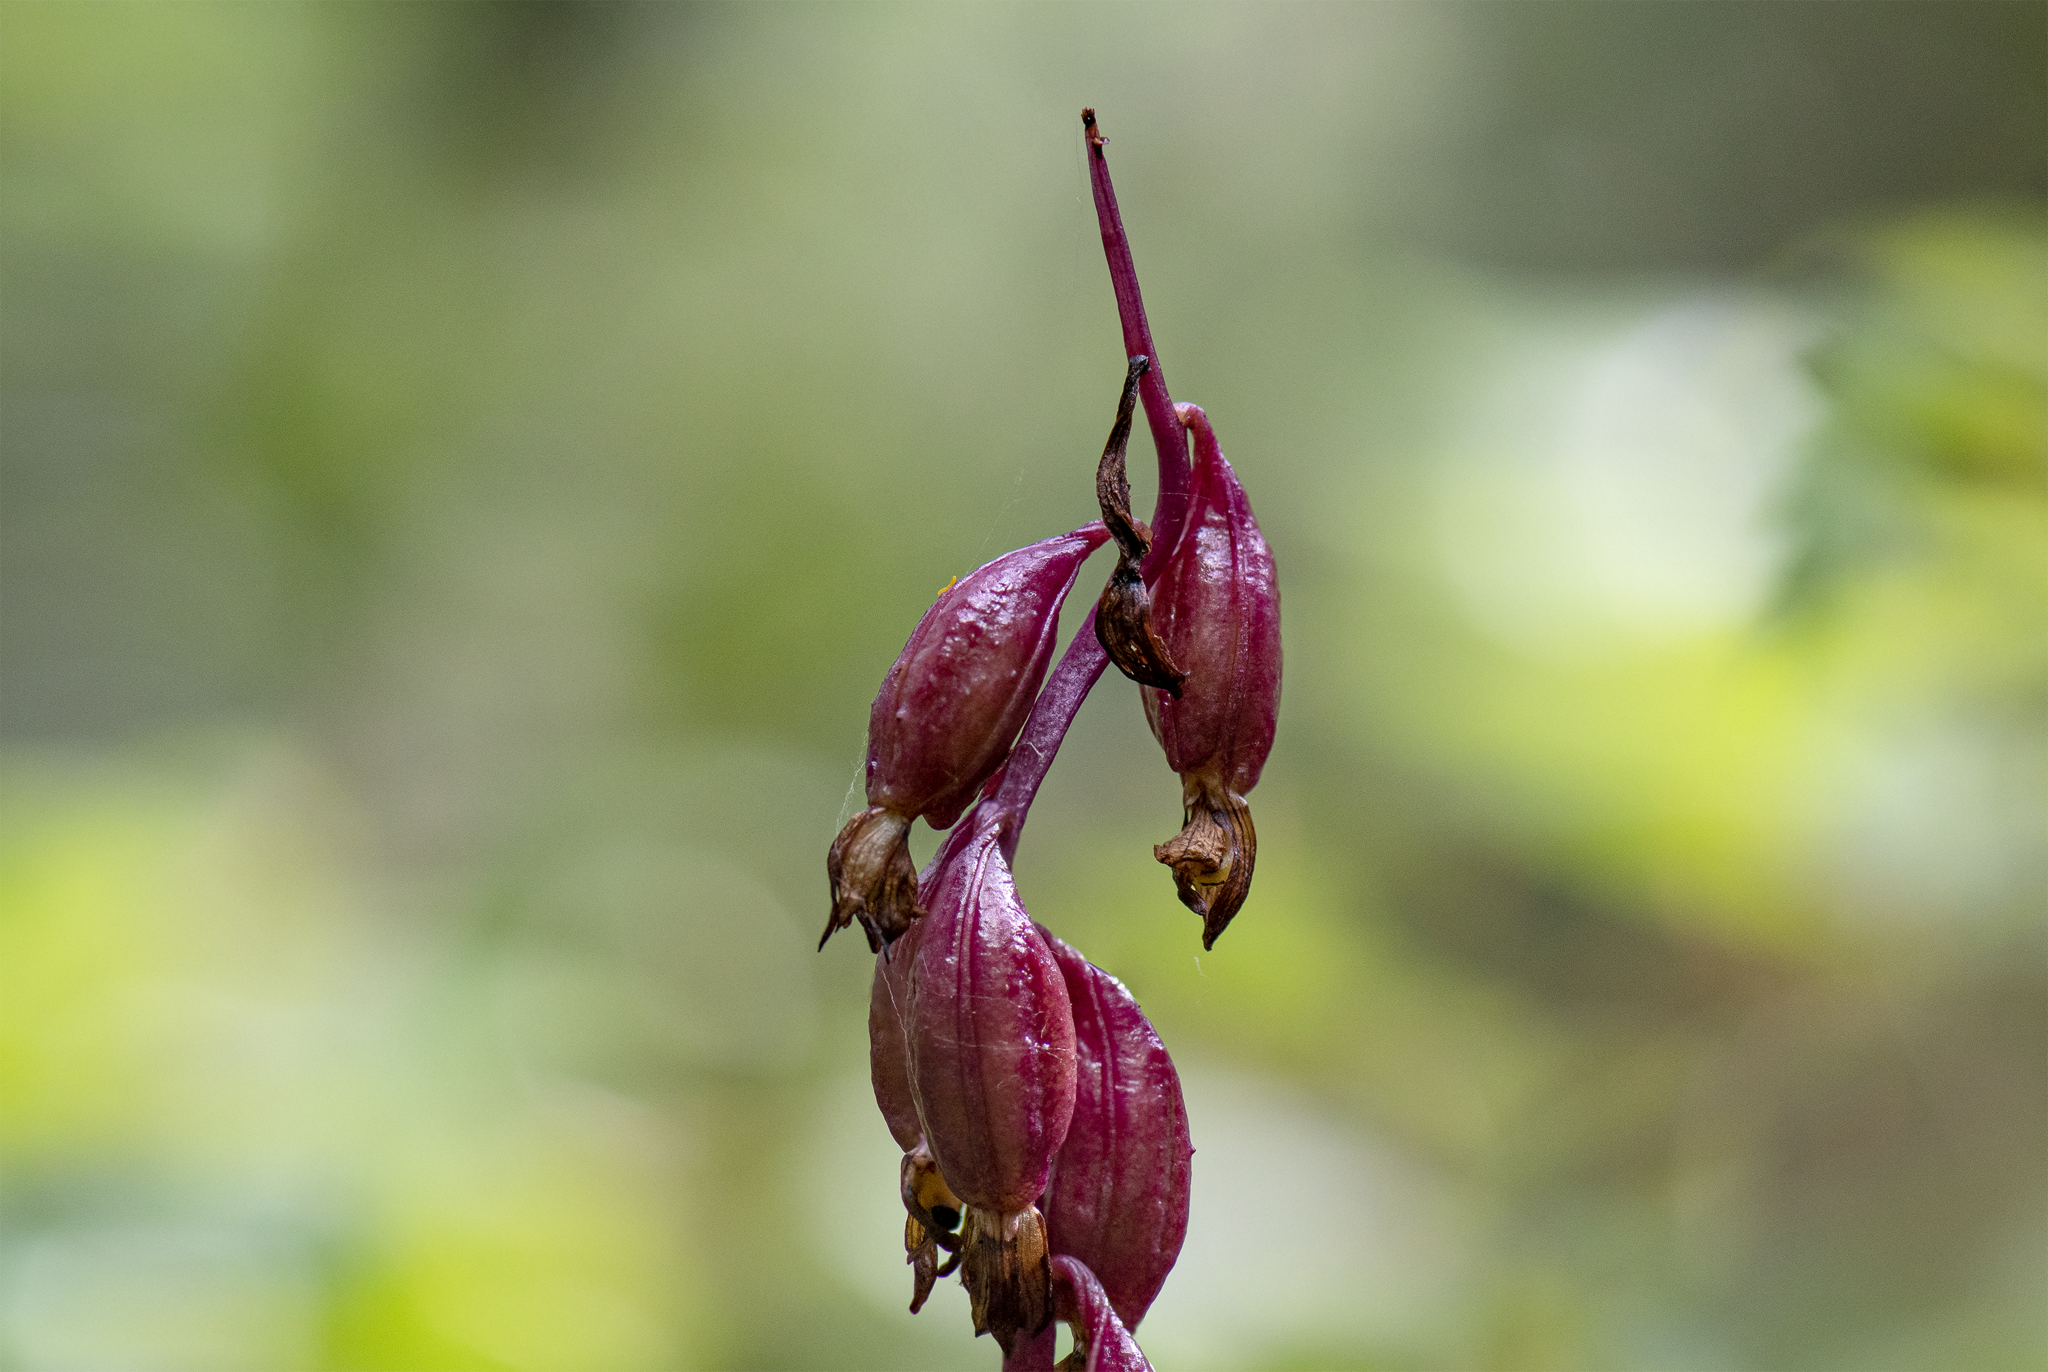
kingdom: Plantae
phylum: Tracheophyta
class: Liliopsida
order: Asparagales
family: Orchidaceae
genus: Corallorhiza
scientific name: Corallorhiza maculata
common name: Spotted coralroot
